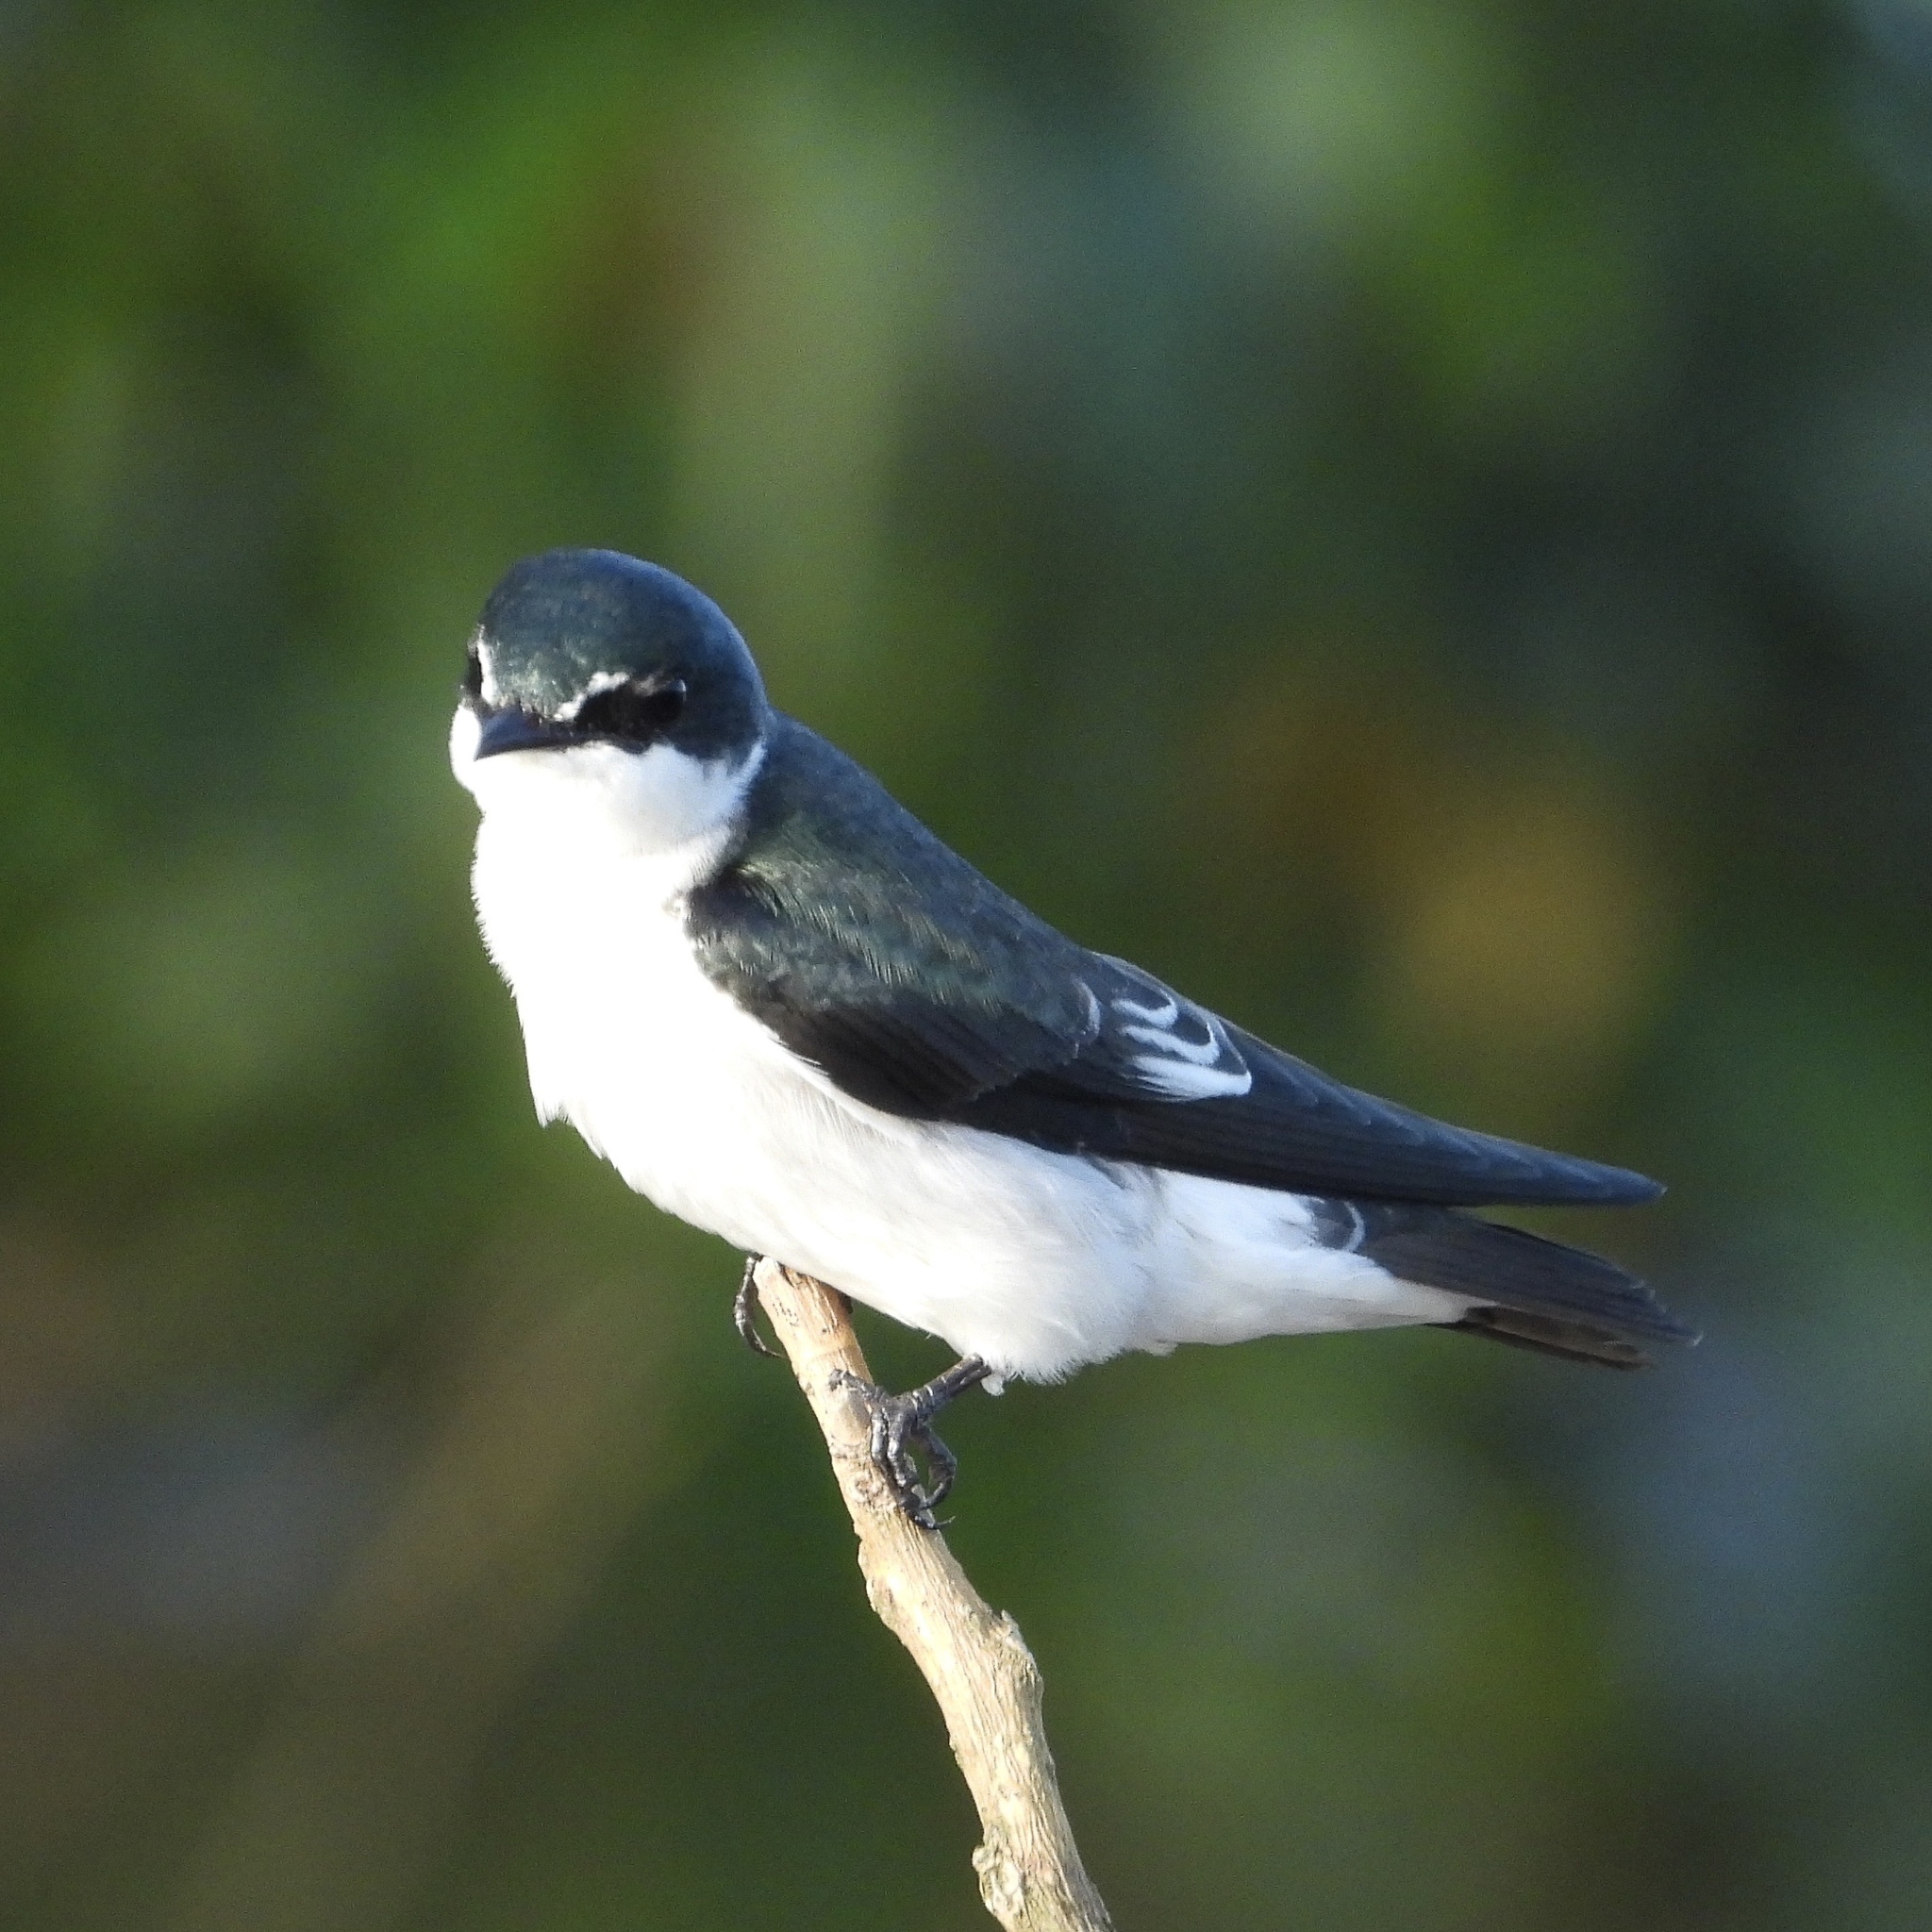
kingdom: Animalia
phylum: Chordata
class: Aves
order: Passeriformes
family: Hirundinidae
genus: Tachycineta
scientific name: Tachycineta albilinea
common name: Mangrove swallow
